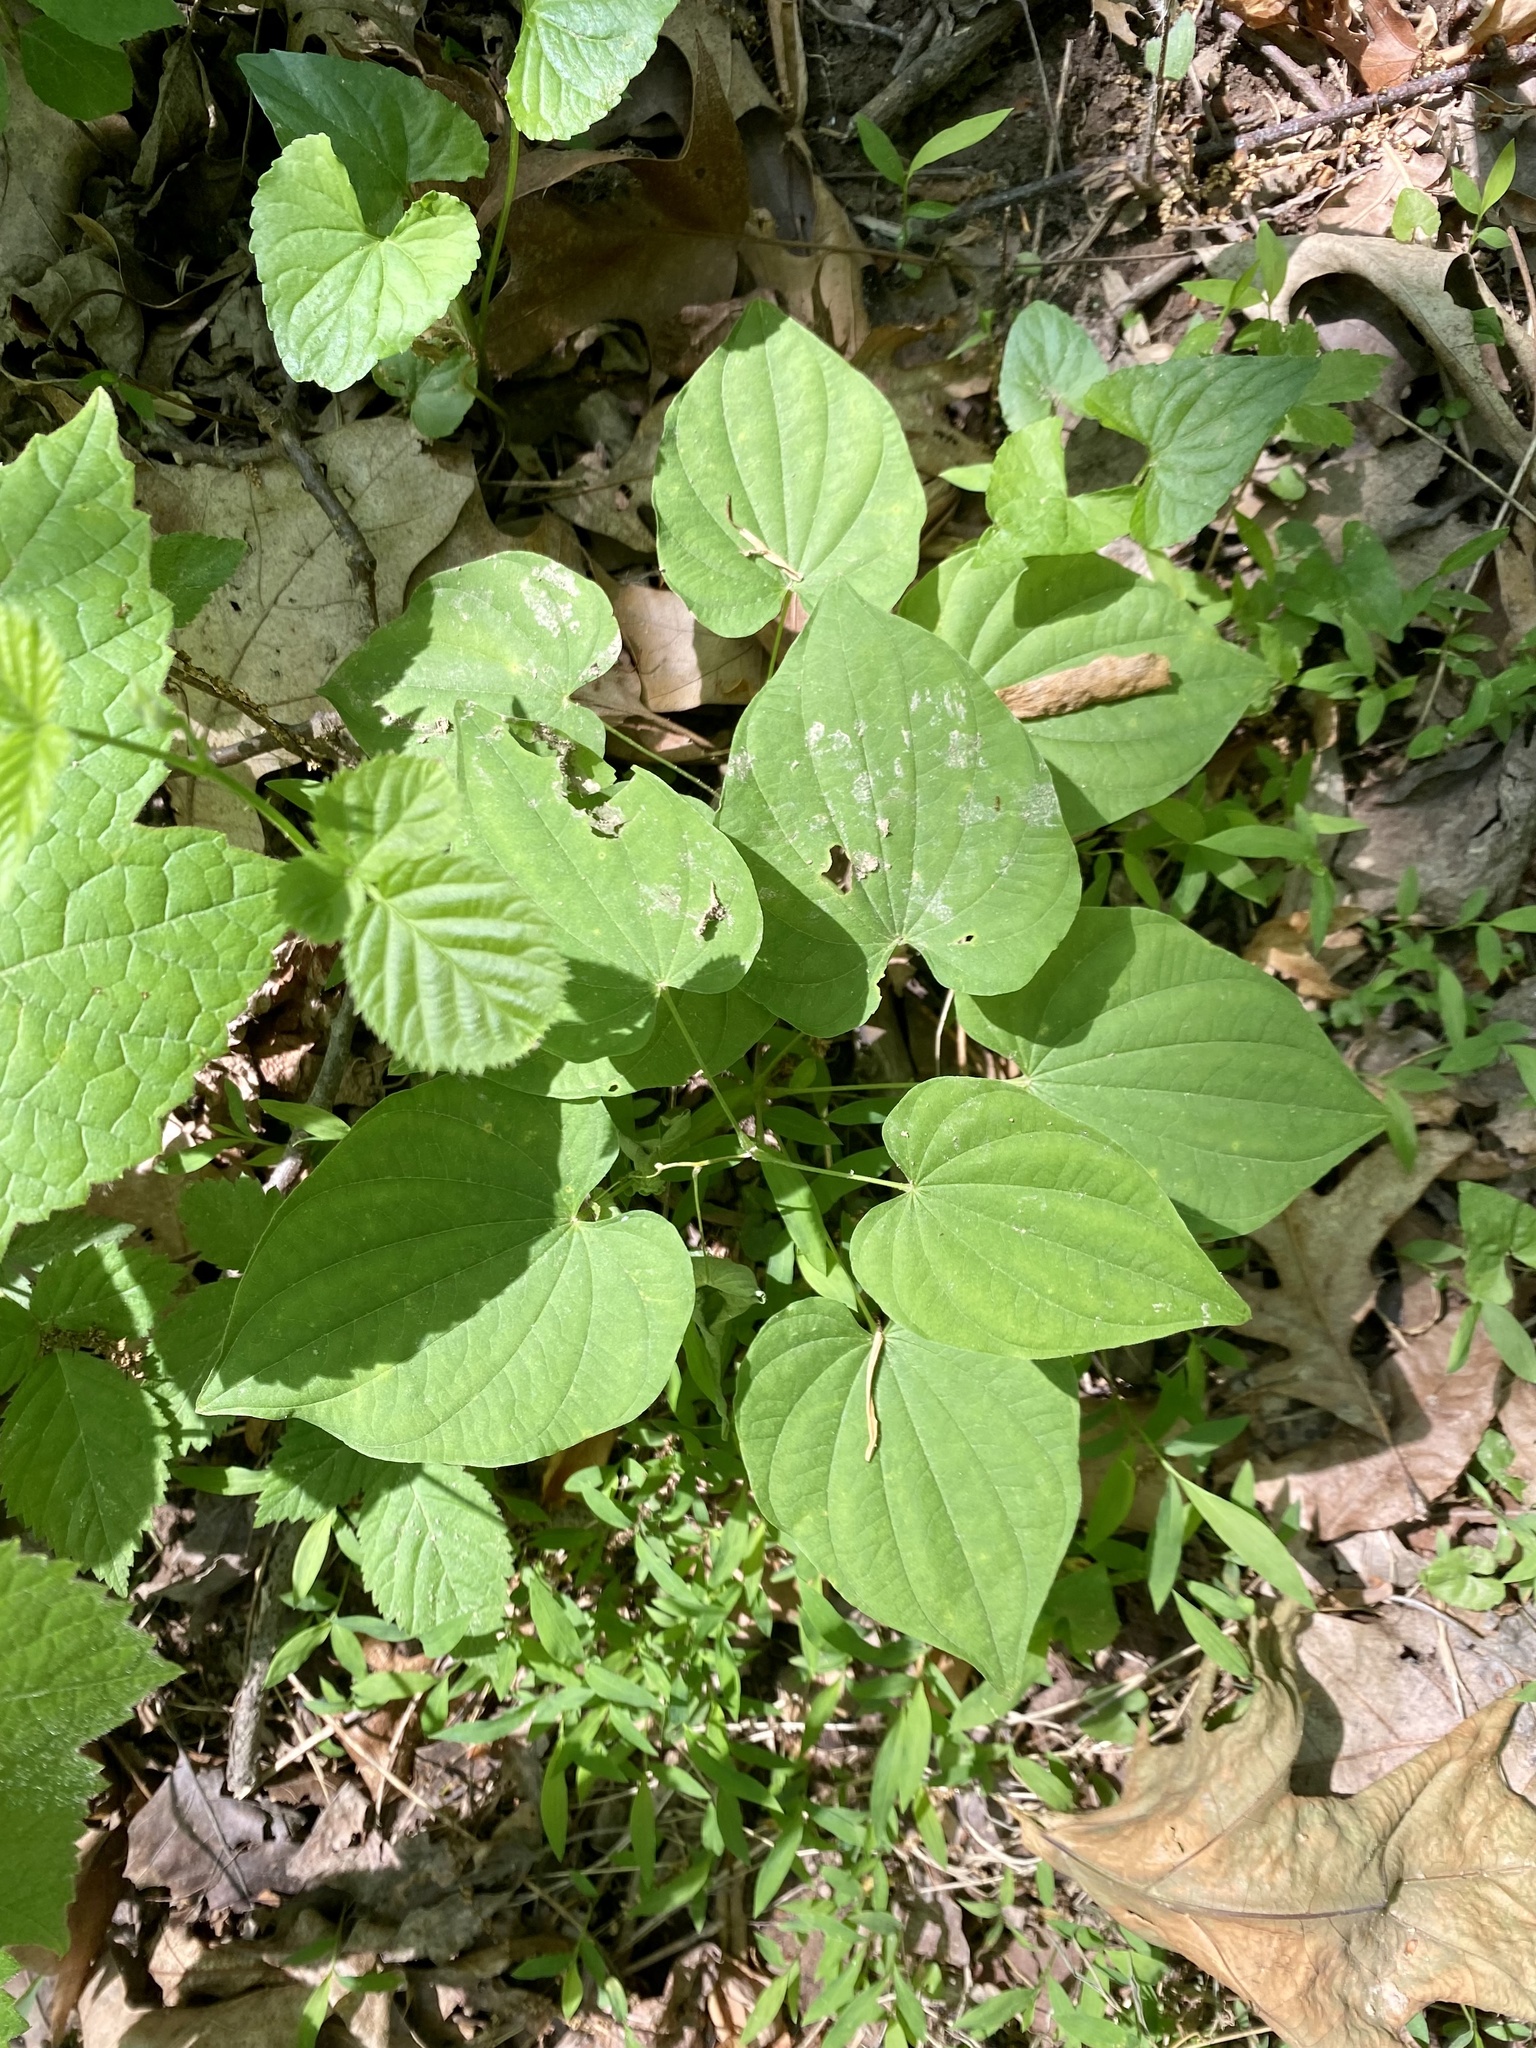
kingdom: Plantae
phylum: Tracheophyta
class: Liliopsida
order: Dioscoreales
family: Dioscoreaceae
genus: Dioscorea
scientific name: Dioscorea villosa
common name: Wild yam
